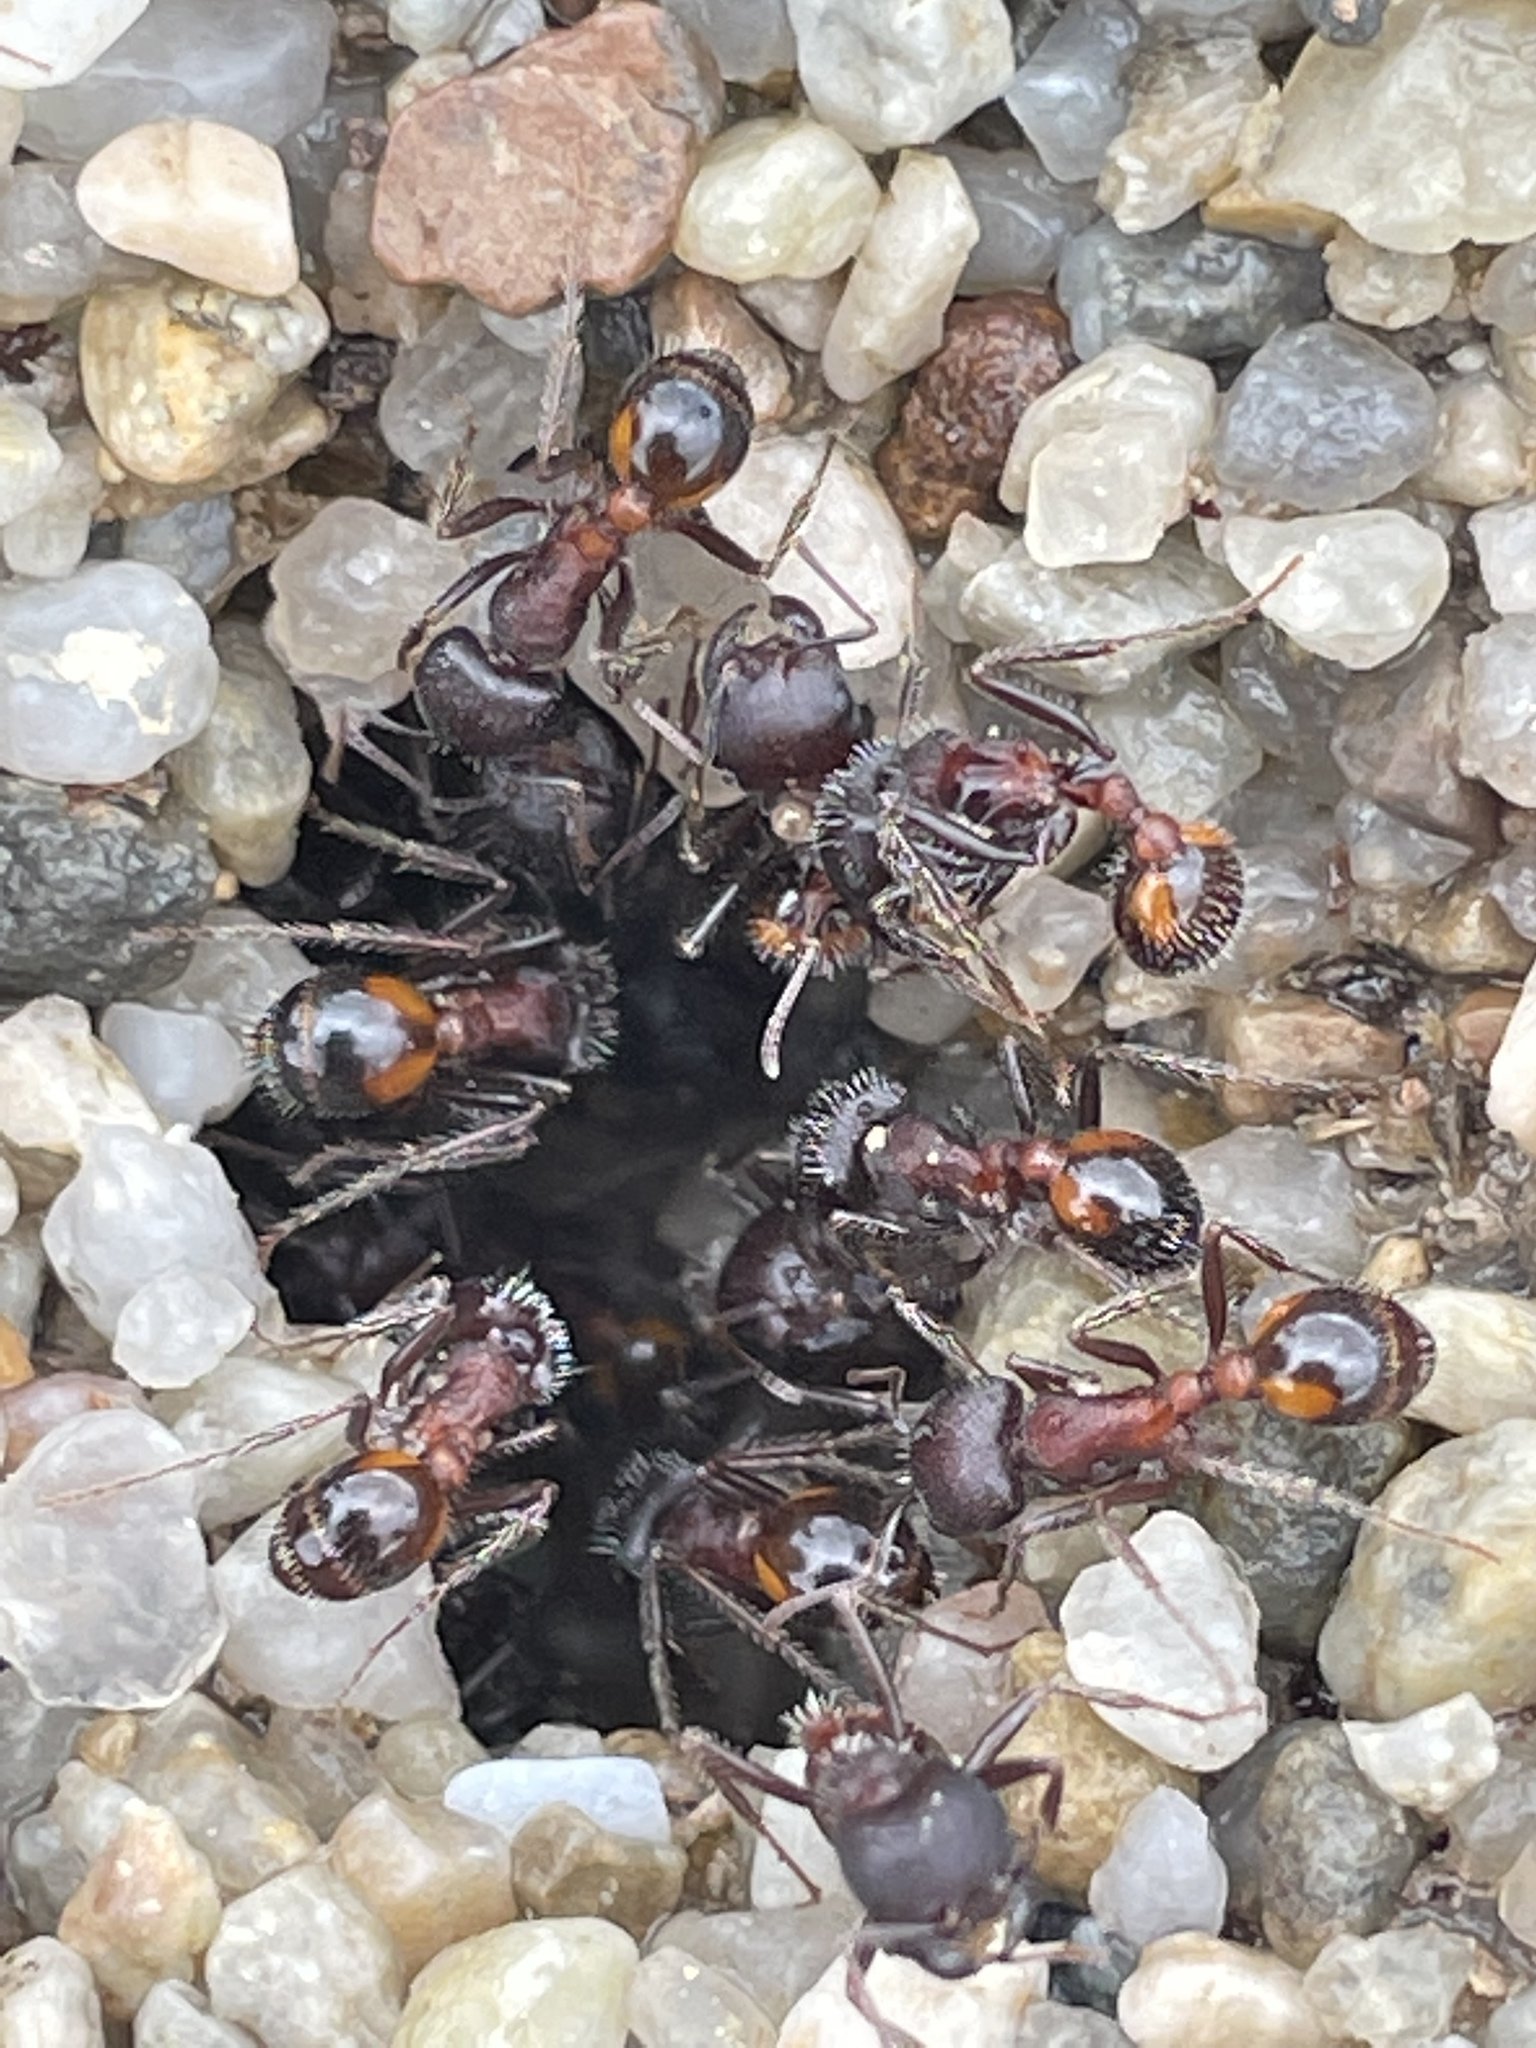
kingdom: Animalia
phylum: Arthropoda
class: Insecta
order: Hymenoptera
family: Formicidae
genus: Pogonomyrmex
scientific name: Pogonomyrmex rugosus
